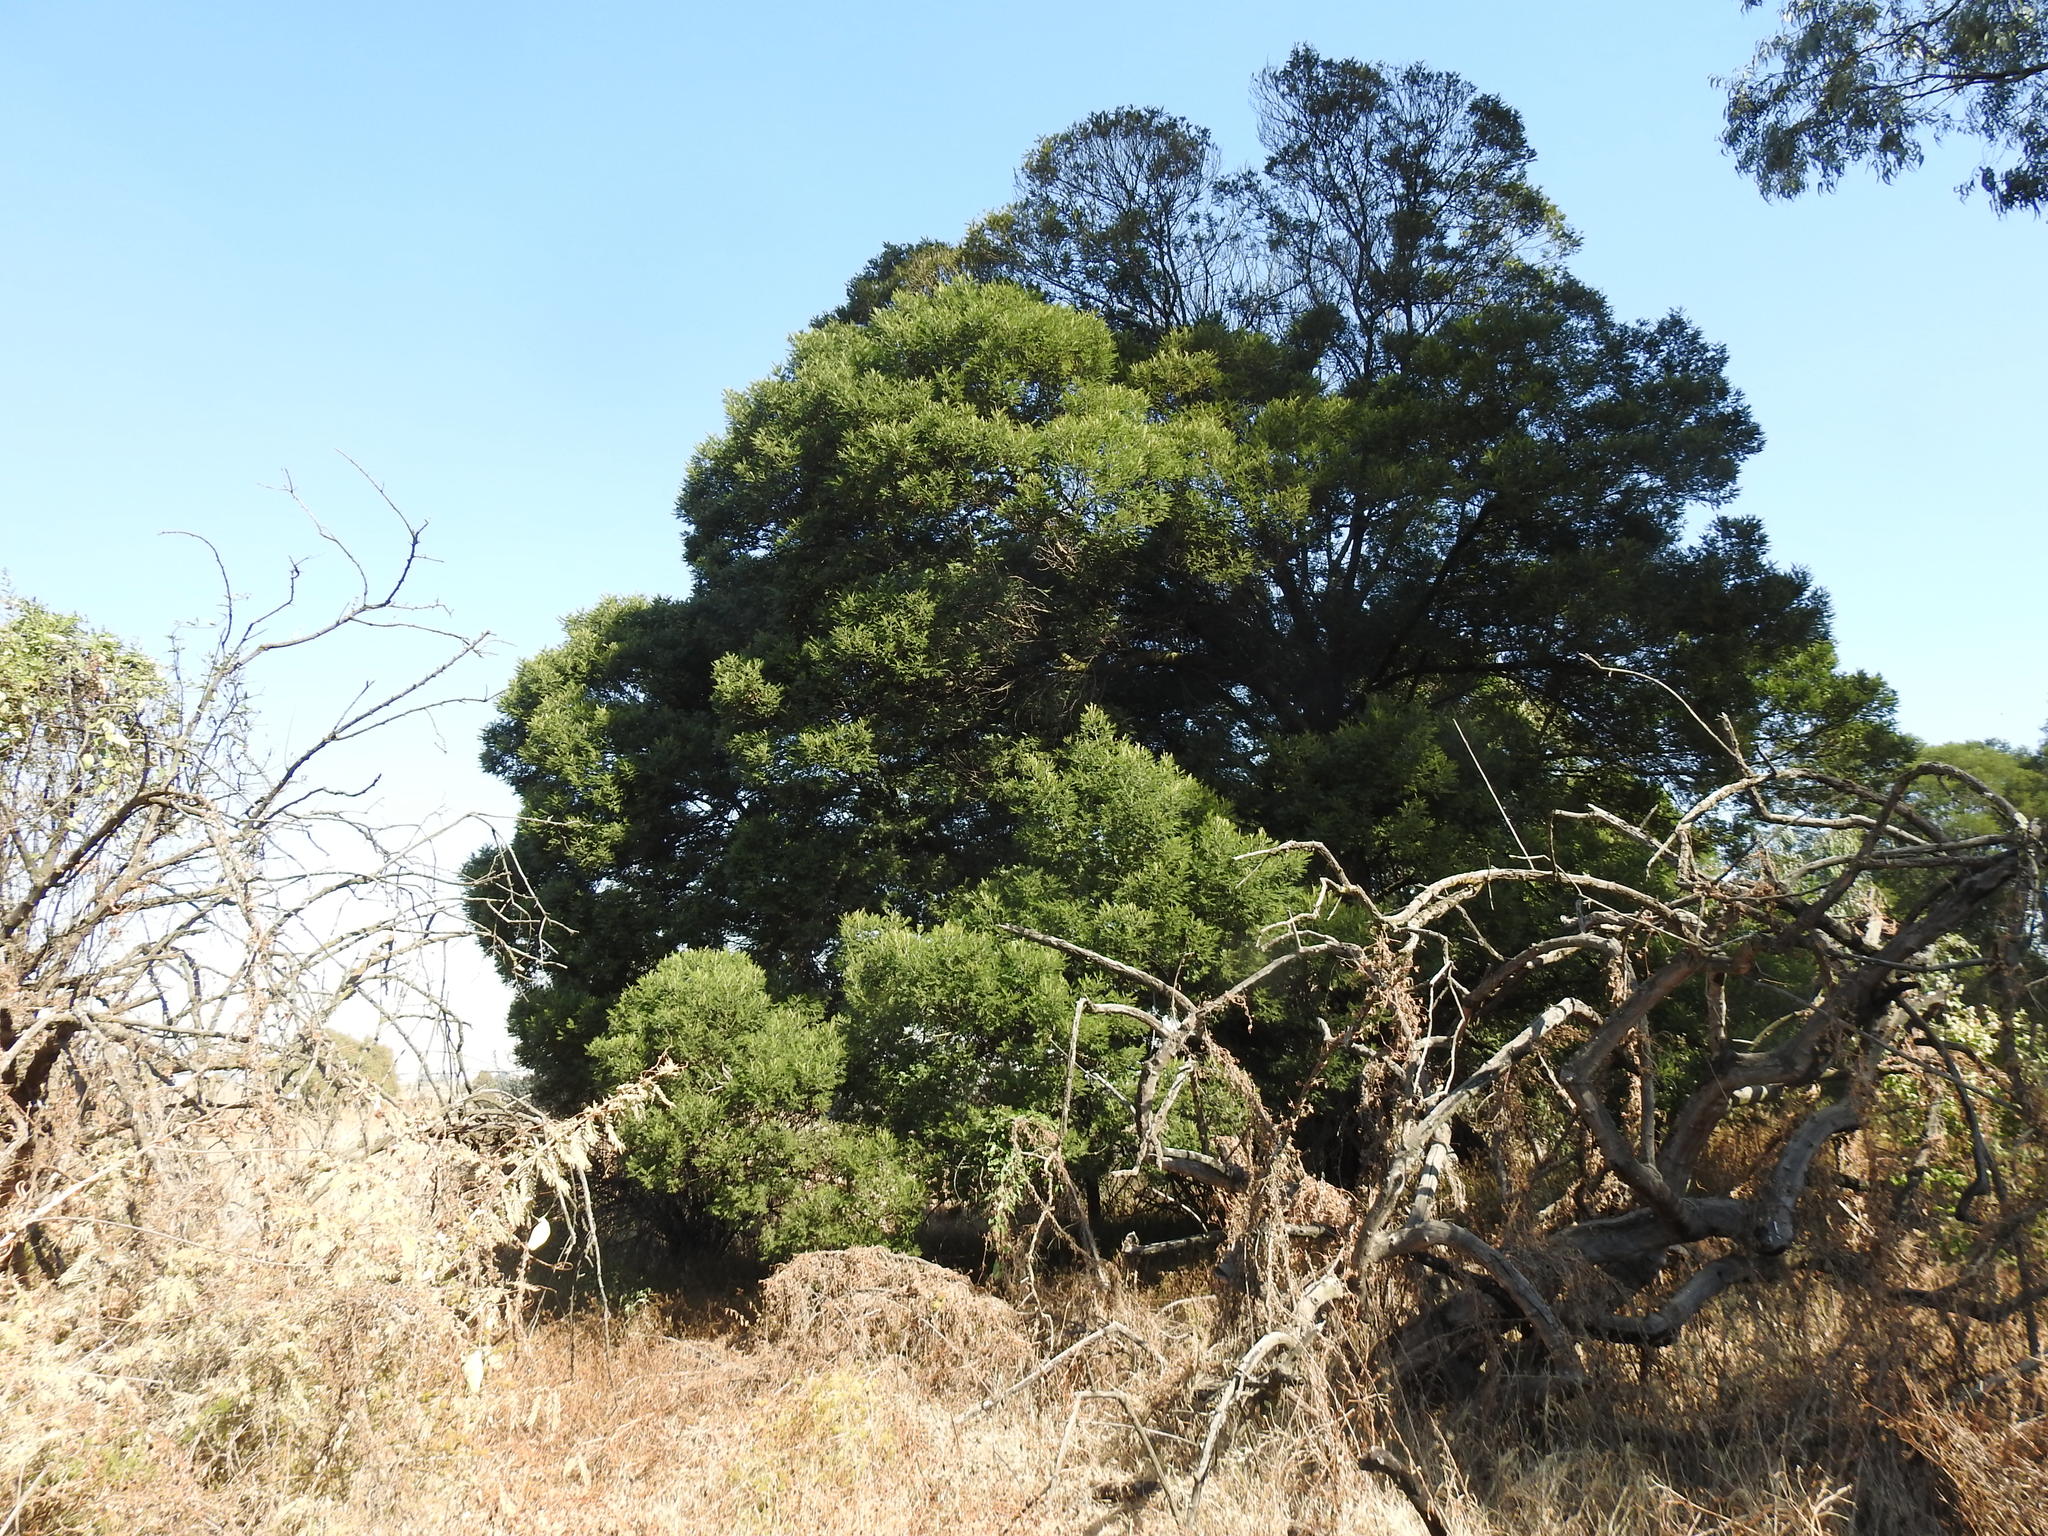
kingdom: Plantae
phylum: Tracheophyta
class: Magnoliopsida
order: Fabales
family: Fabaceae
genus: Acacia
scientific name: Acacia mearnsii
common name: Black wattle
